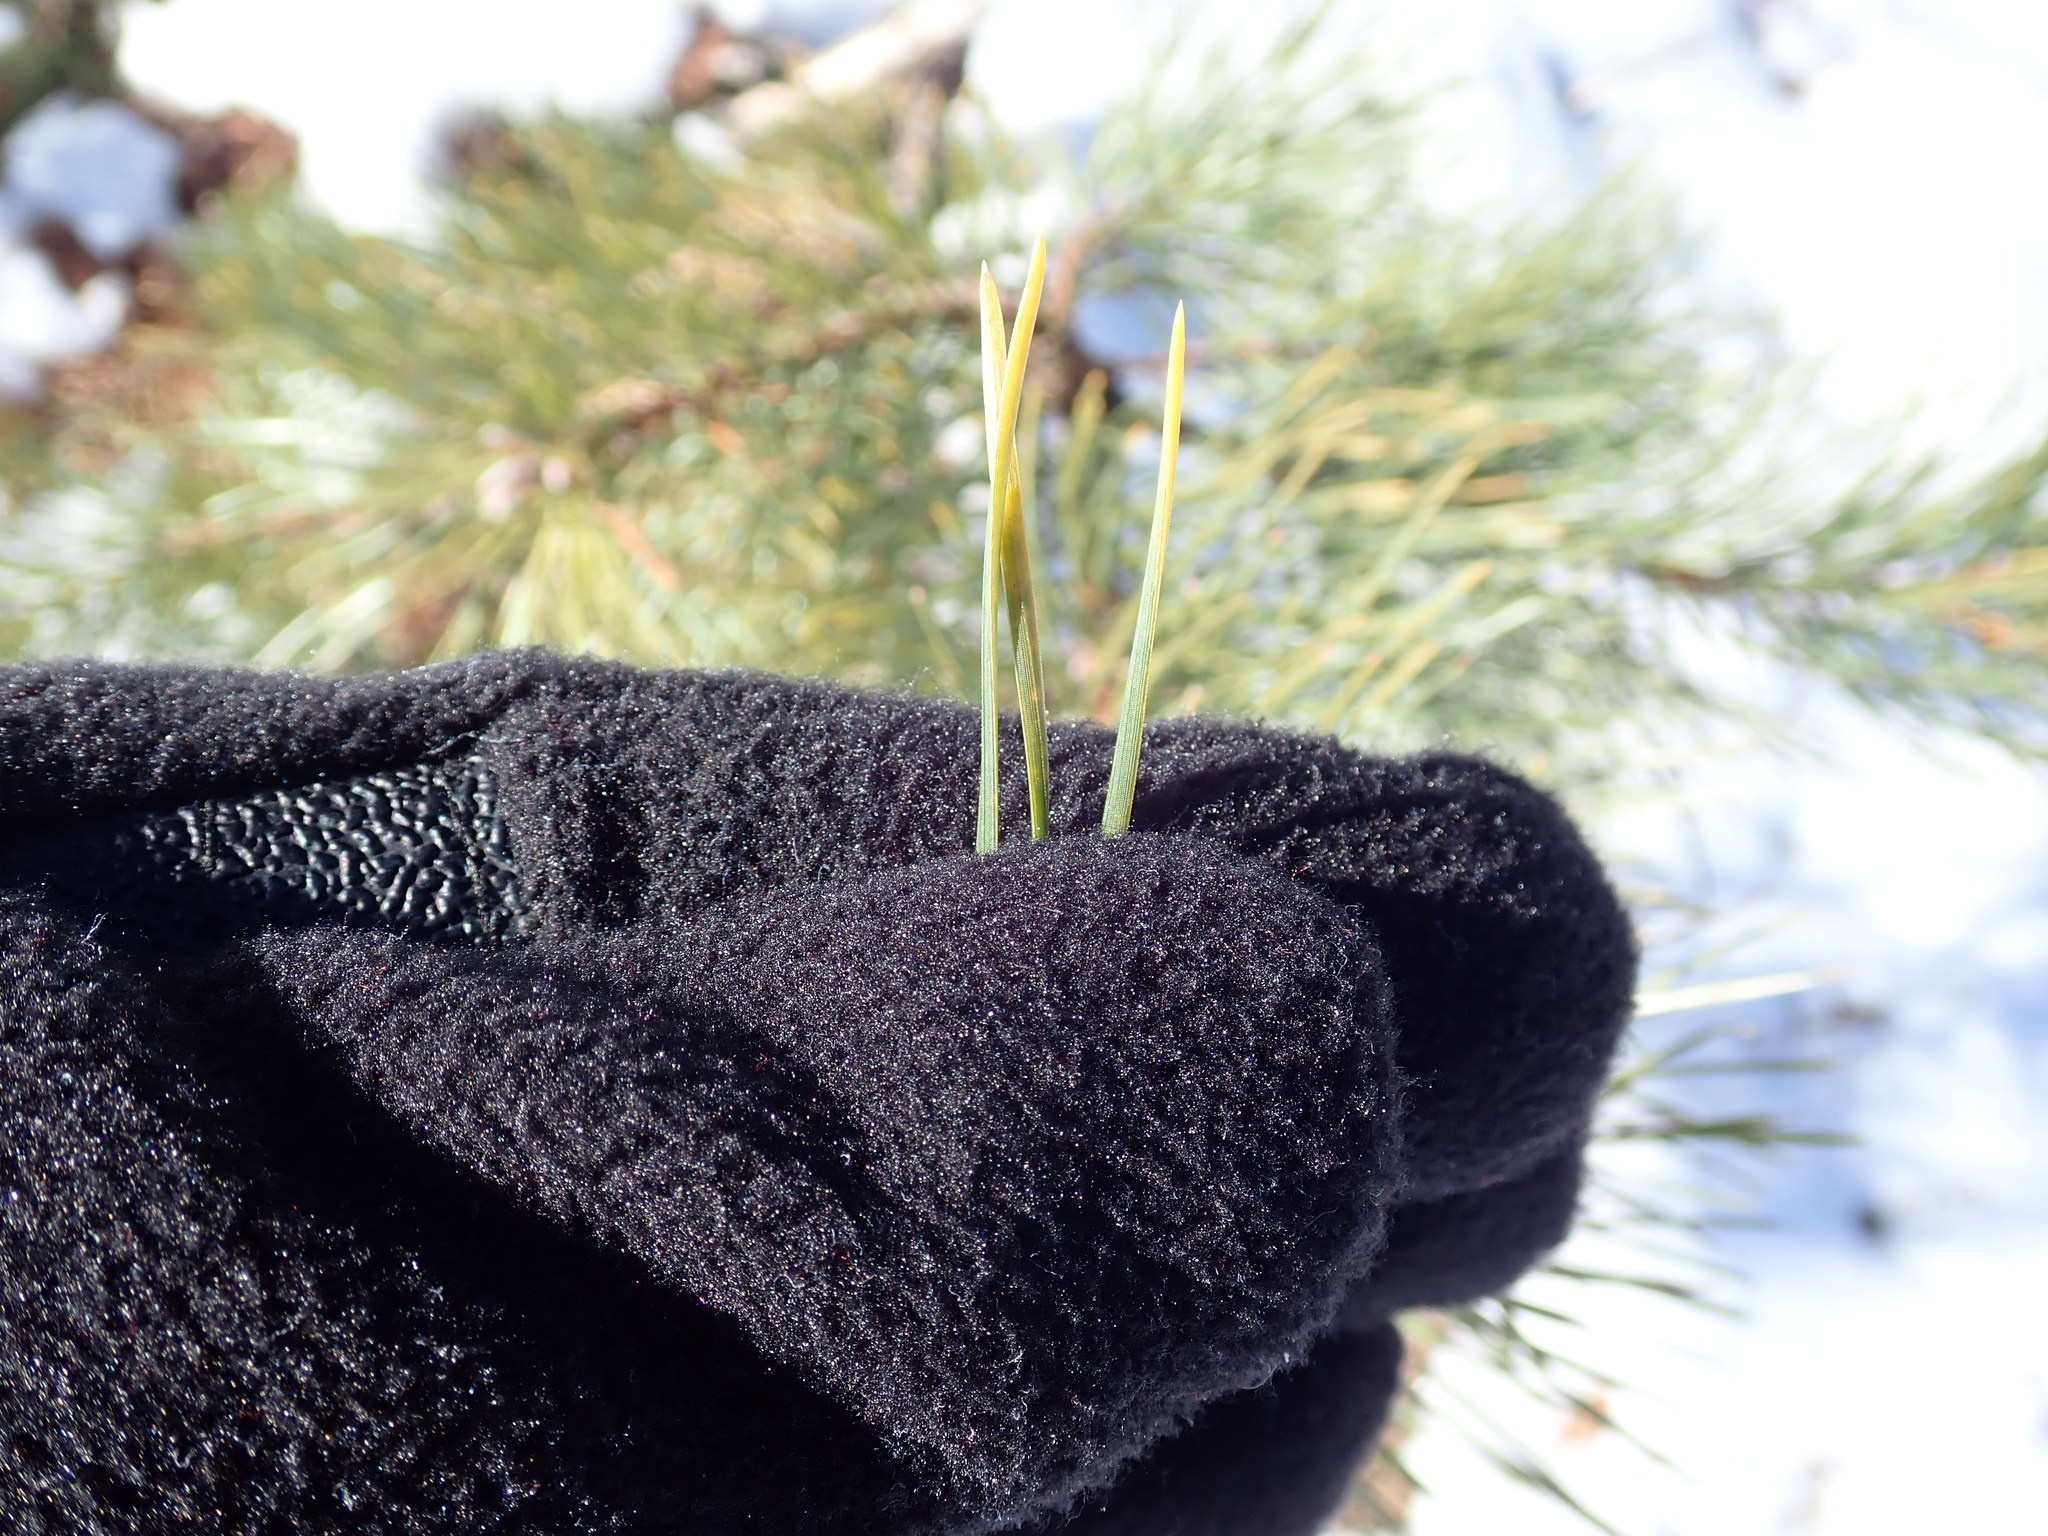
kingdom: Plantae
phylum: Tracheophyta
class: Pinopsida
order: Pinales
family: Pinaceae
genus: Pinus
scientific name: Pinus rigida
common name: Pitch pine
